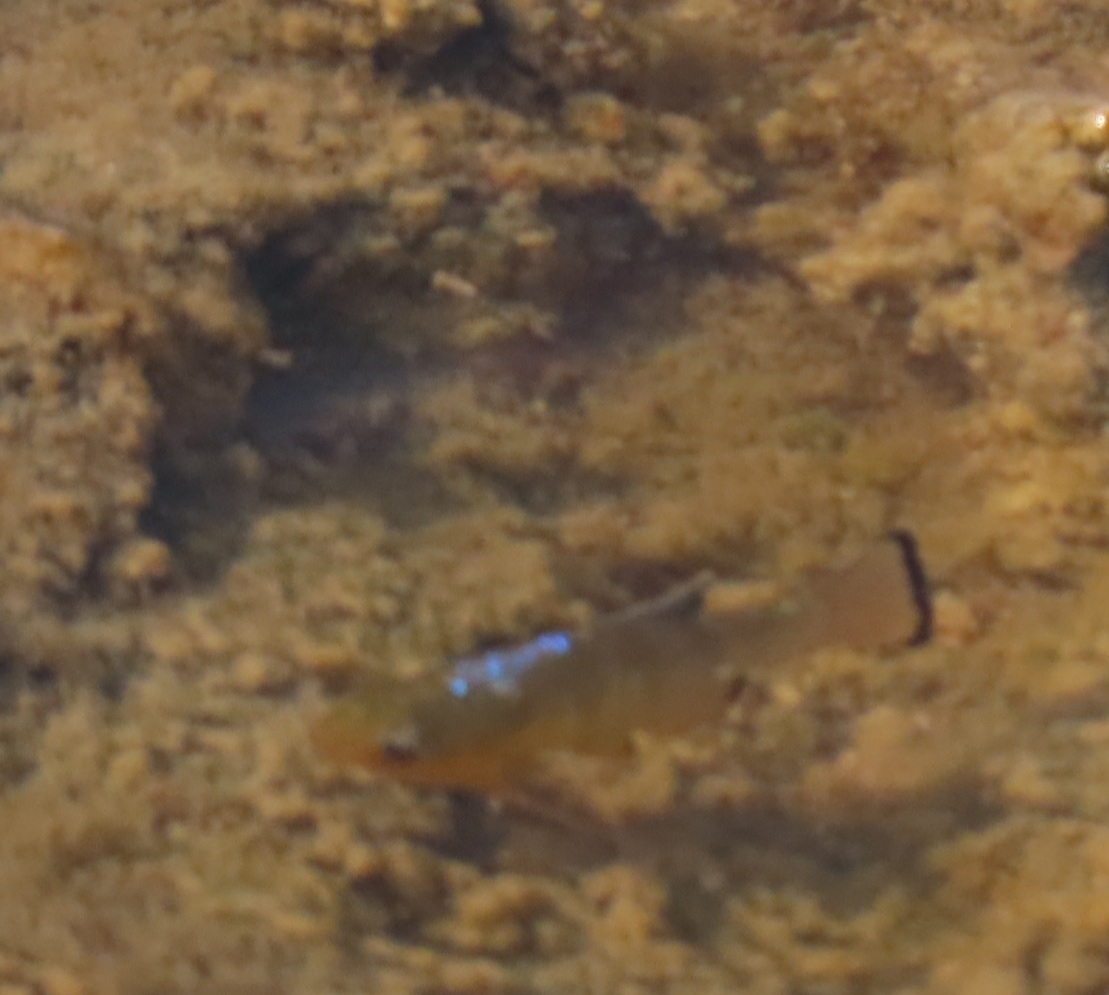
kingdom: Animalia
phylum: Chordata
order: Cyprinodontiformes
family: Cyprinodontidae
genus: Cyprinodon
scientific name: Cyprinodon variegatus
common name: Sheepshead minnow
